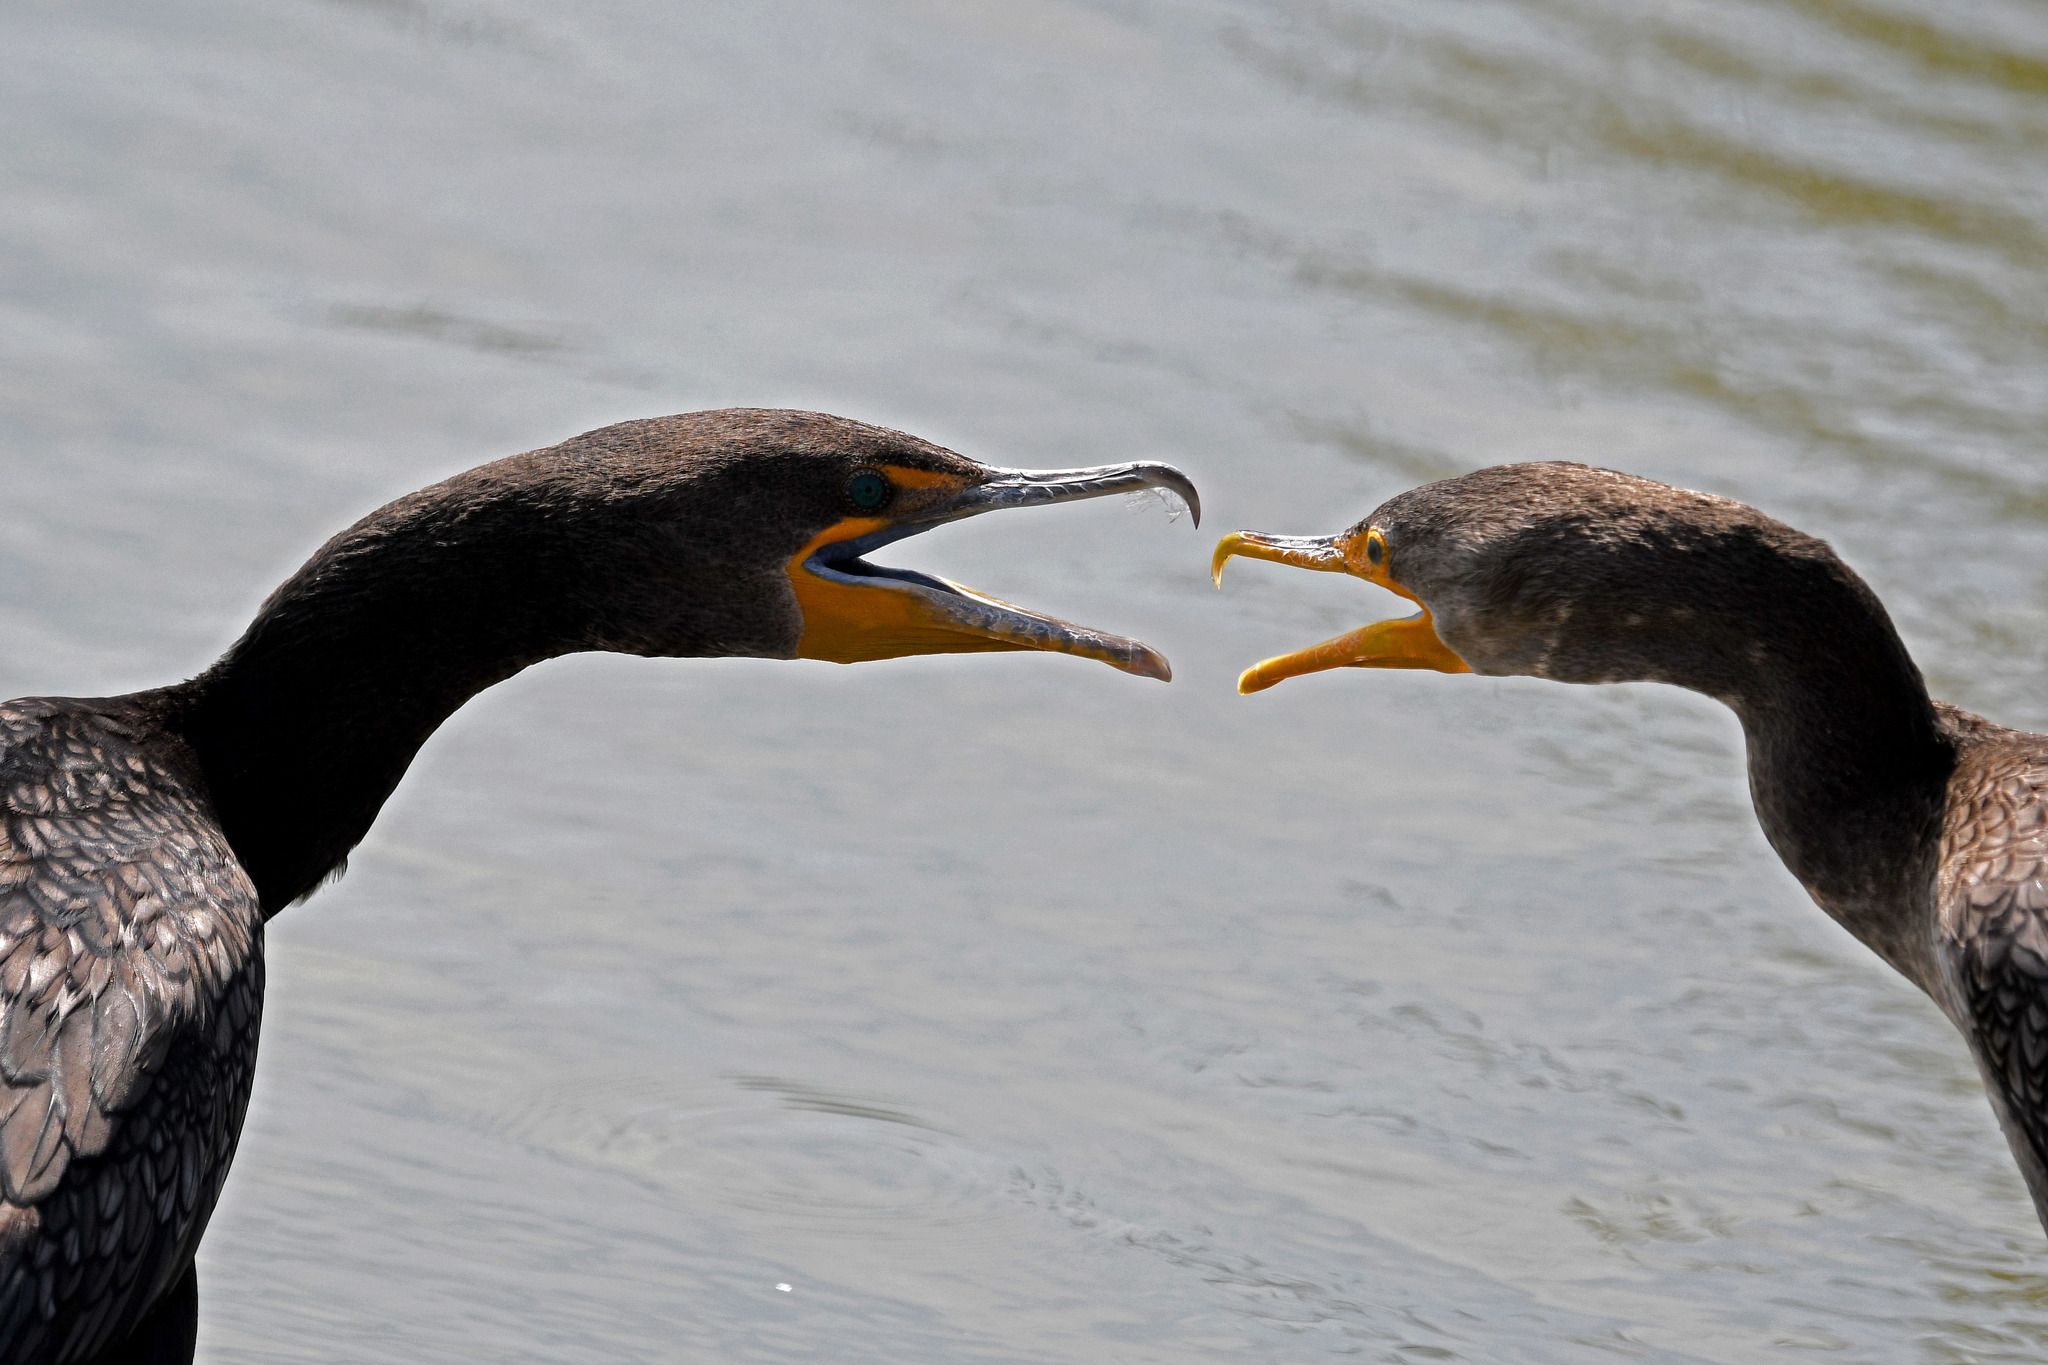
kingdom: Animalia
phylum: Chordata
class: Aves
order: Suliformes
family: Phalacrocoracidae
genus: Phalacrocorax
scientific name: Phalacrocorax auritus
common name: Double-crested cormorant
